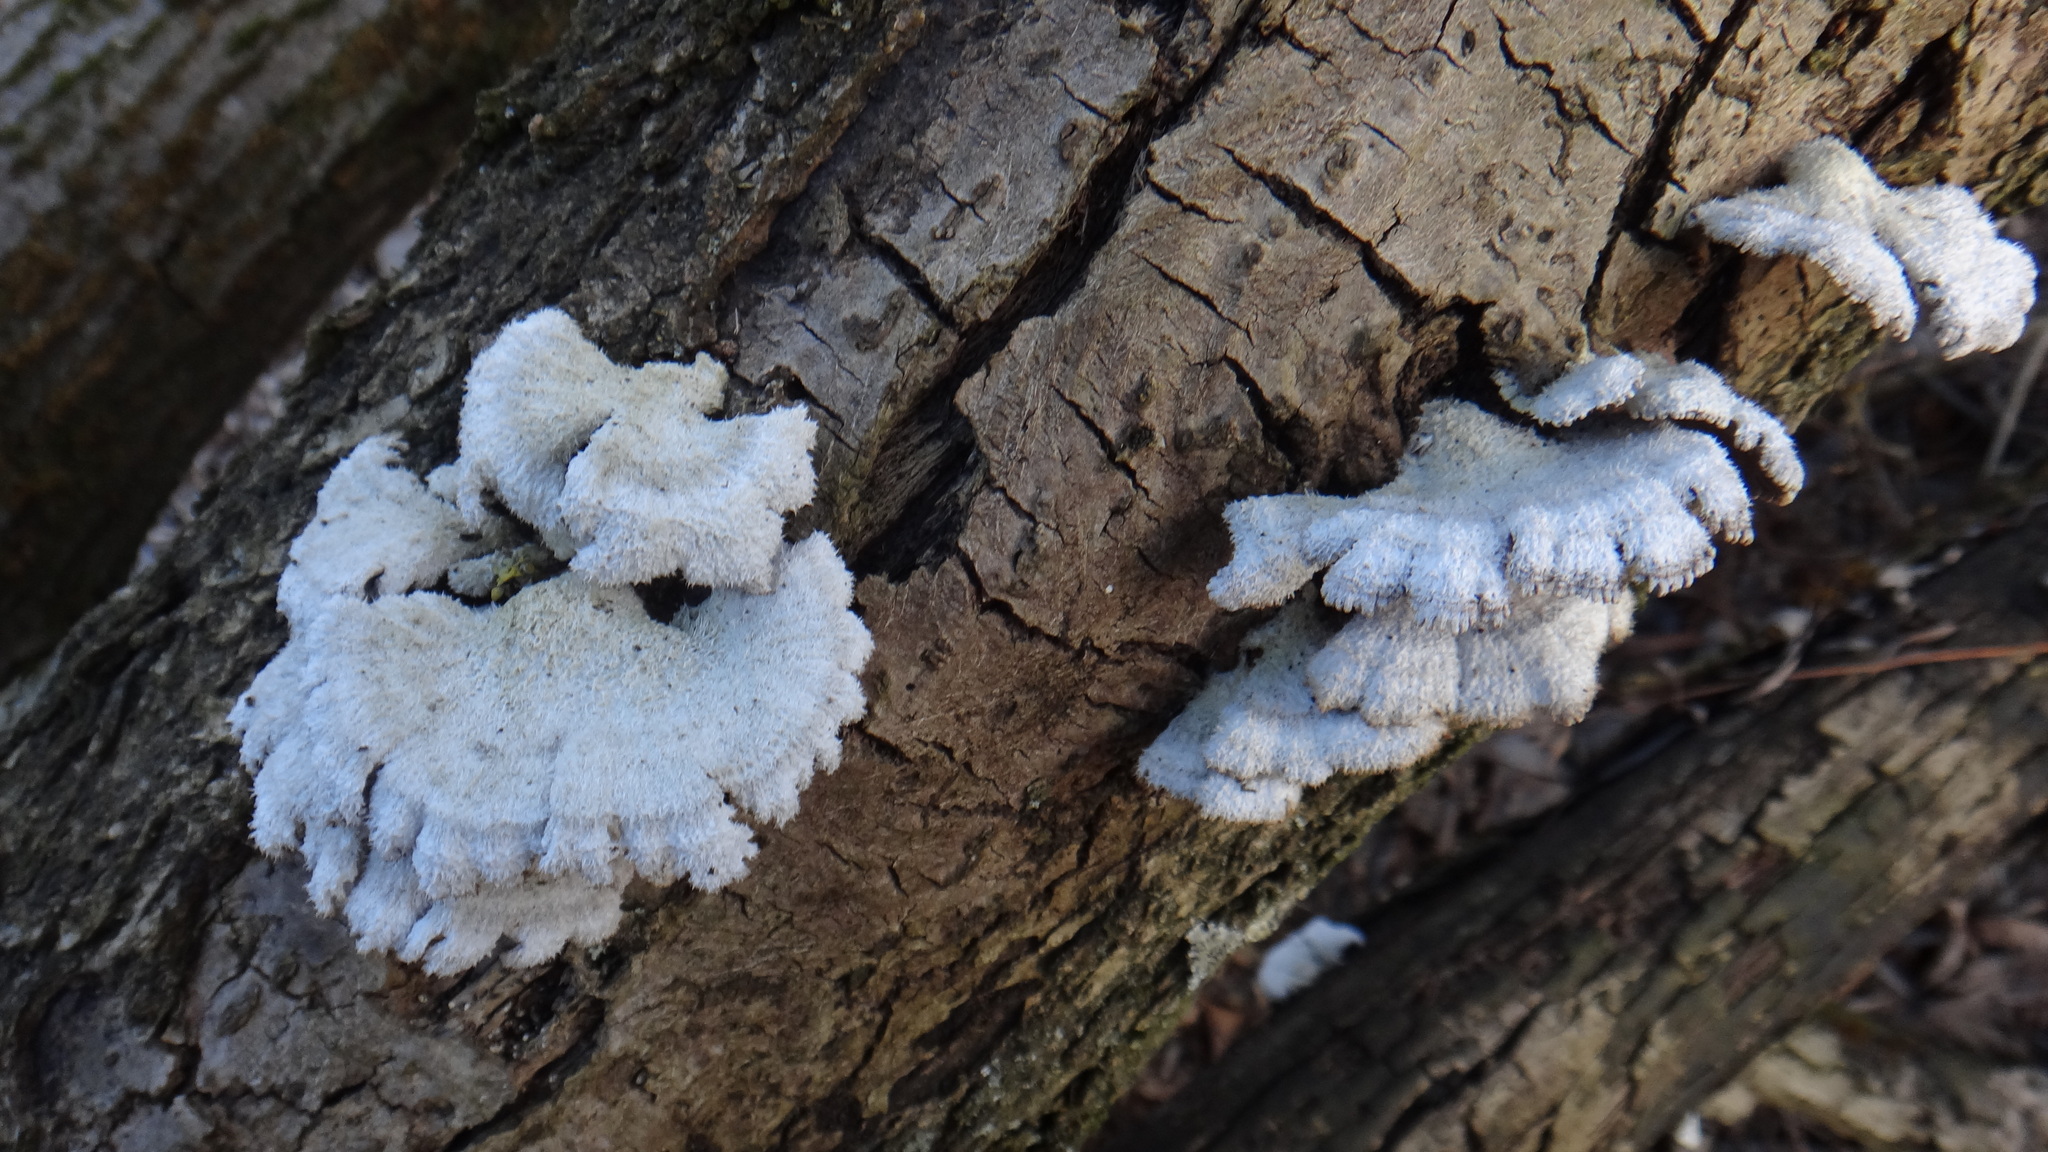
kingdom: Fungi
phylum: Basidiomycota
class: Agaricomycetes
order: Agaricales
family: Schizophyllaceae
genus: Schizophyllum
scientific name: Schizophyllum commune
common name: Common porecrust
